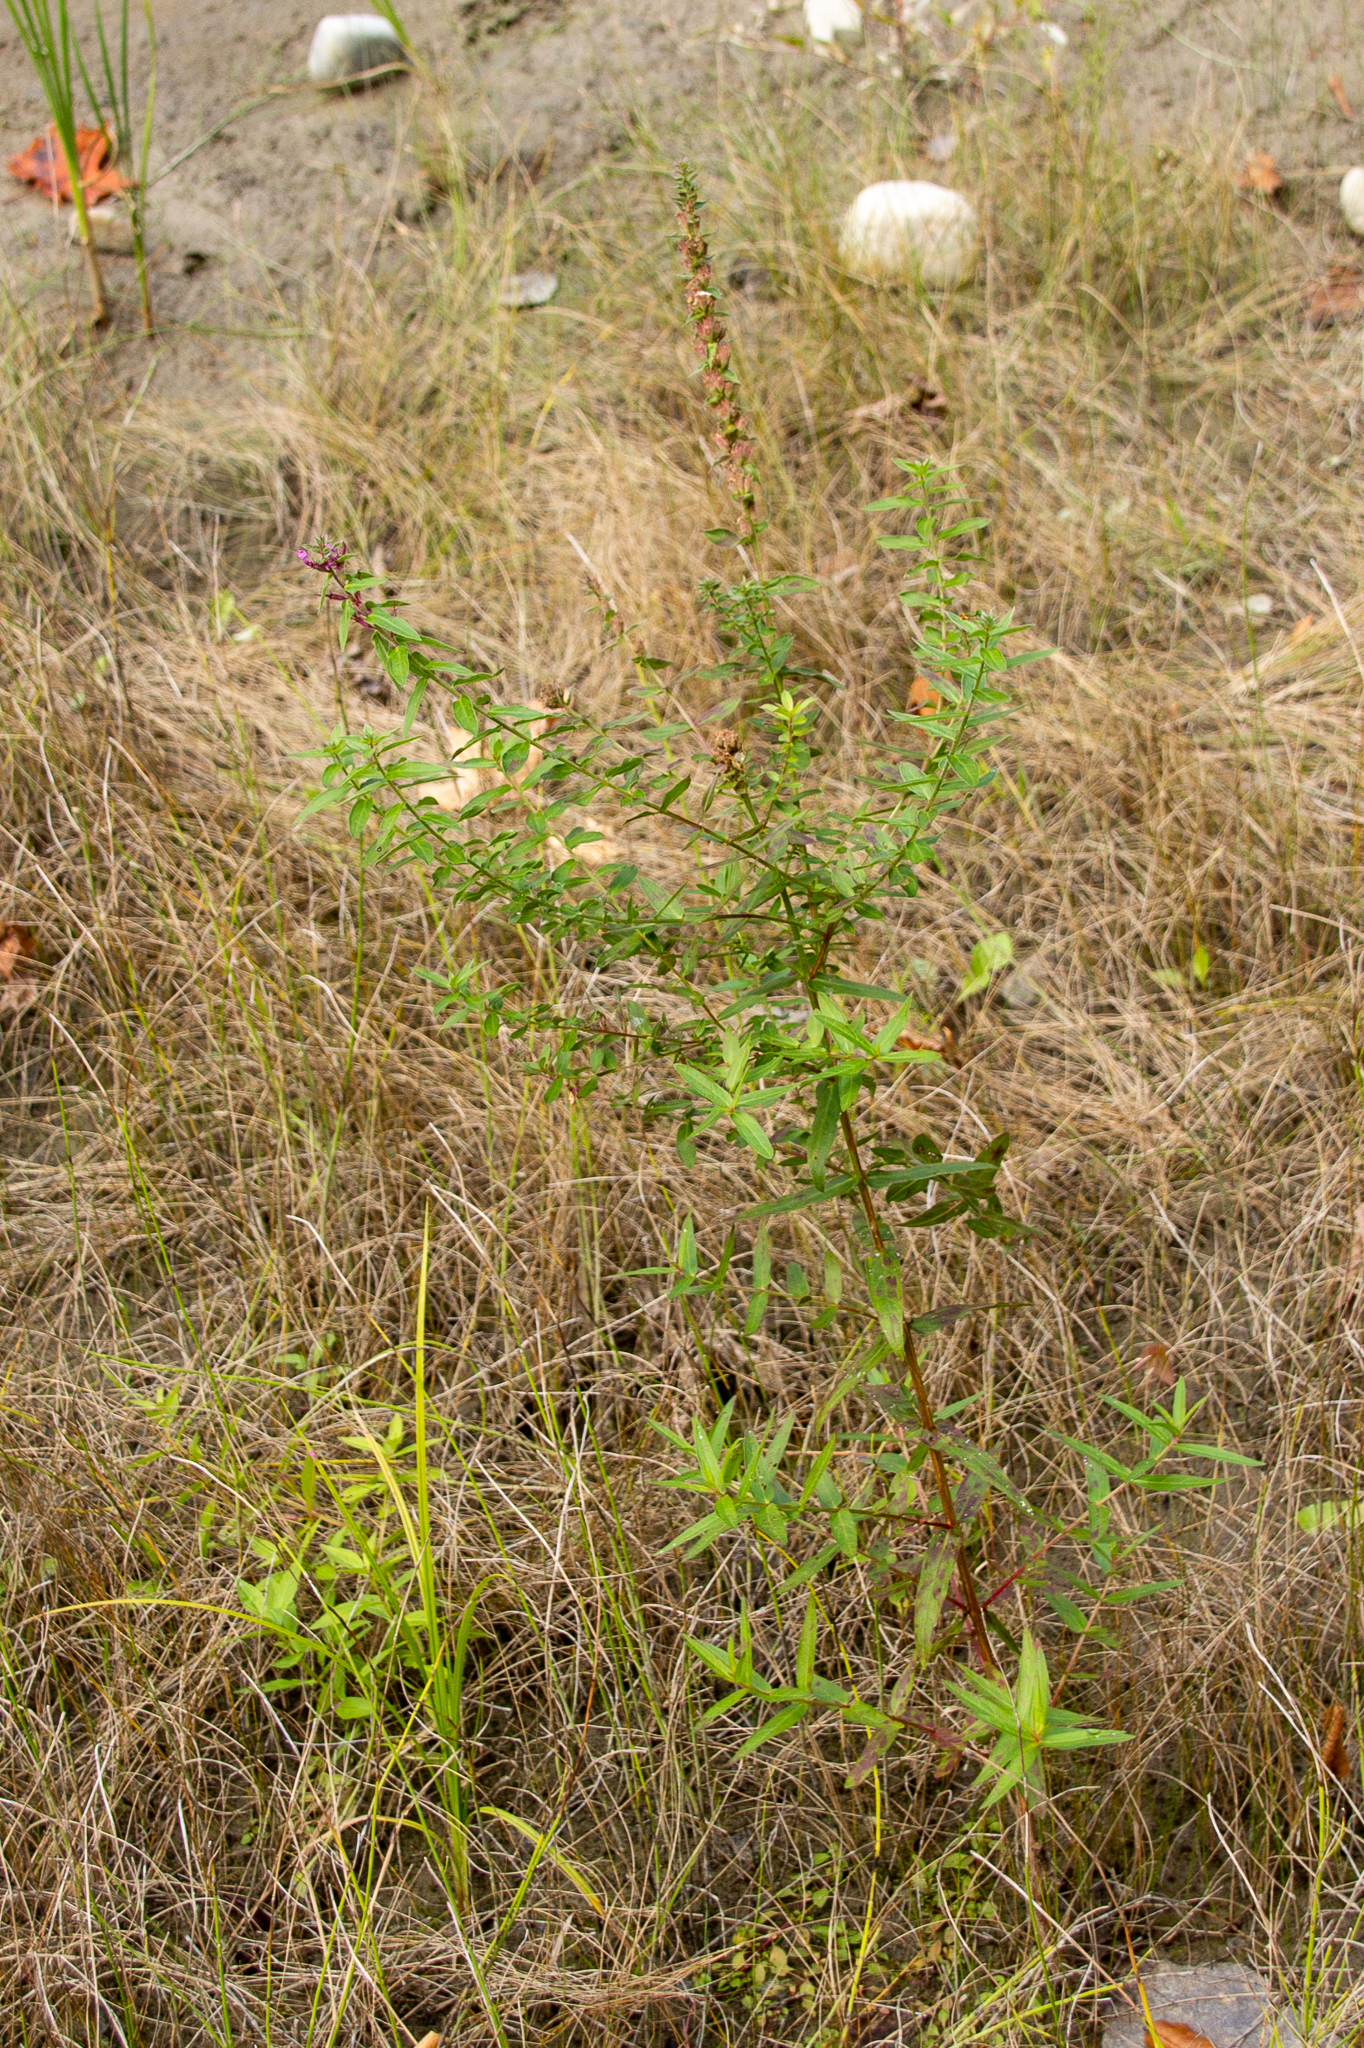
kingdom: Plantae
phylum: Tracheophyta
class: Magnoliopsida
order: Myrtales
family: Lythraceae
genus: Lythrum
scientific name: Lythrum salicaria
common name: Purple loosestrife
